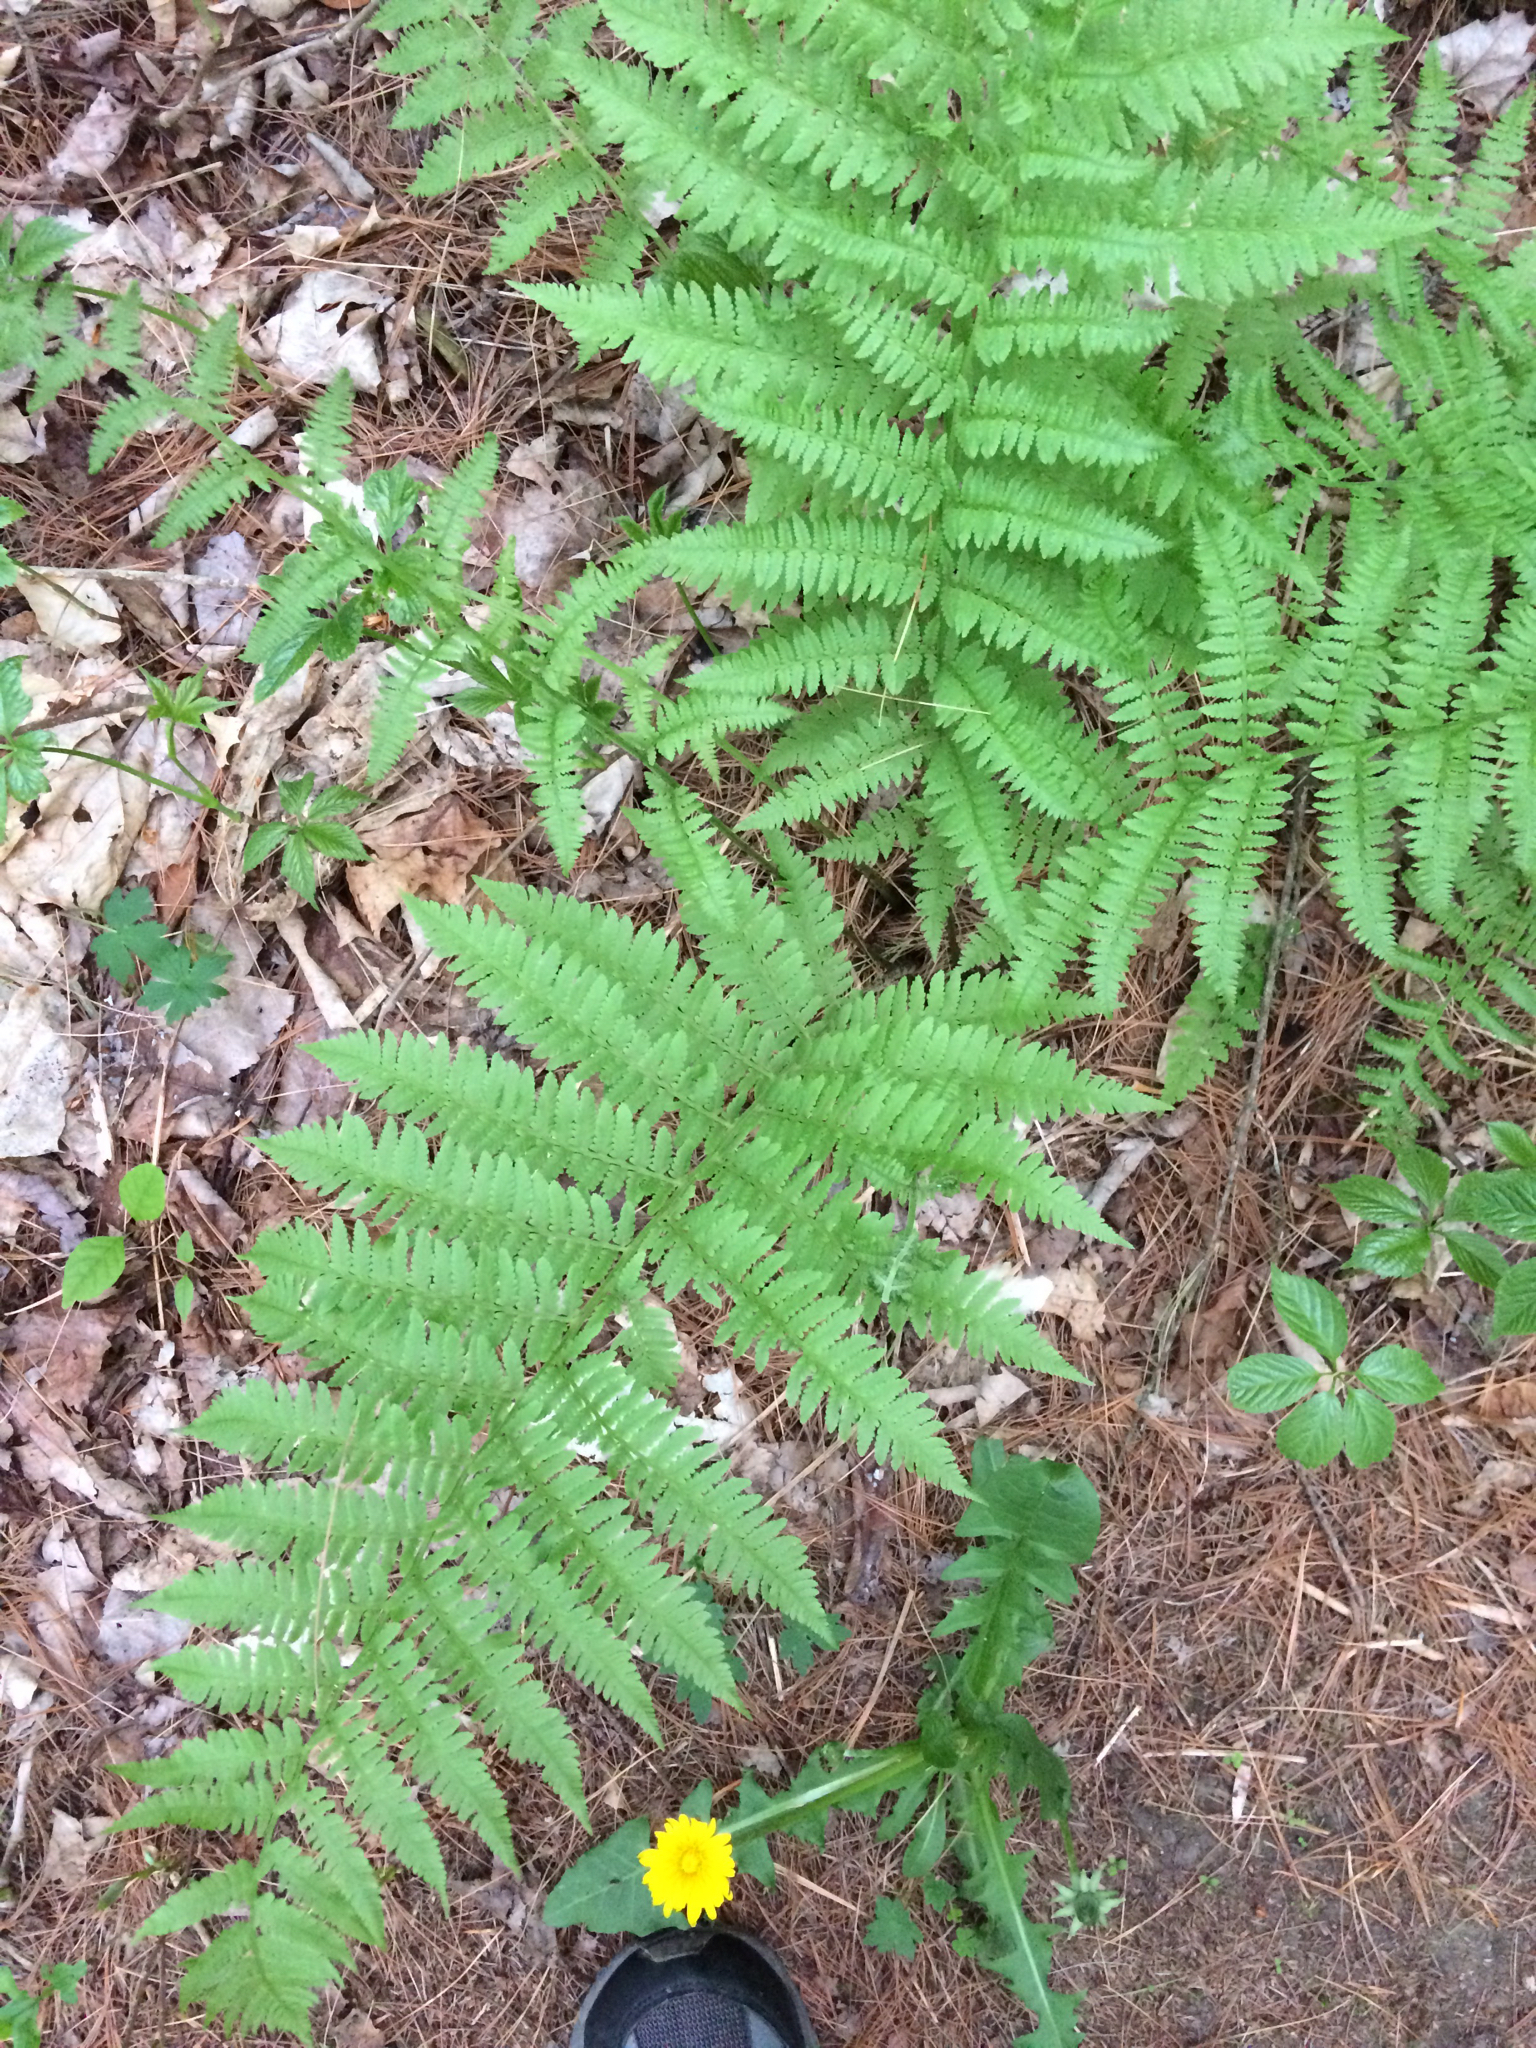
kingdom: Plantae
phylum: Tracheophyta
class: Polypodiopsida
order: Polypodiales
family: Athyriaceae
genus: Athyrium
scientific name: Athyrium angustum
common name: Northern lady fern
